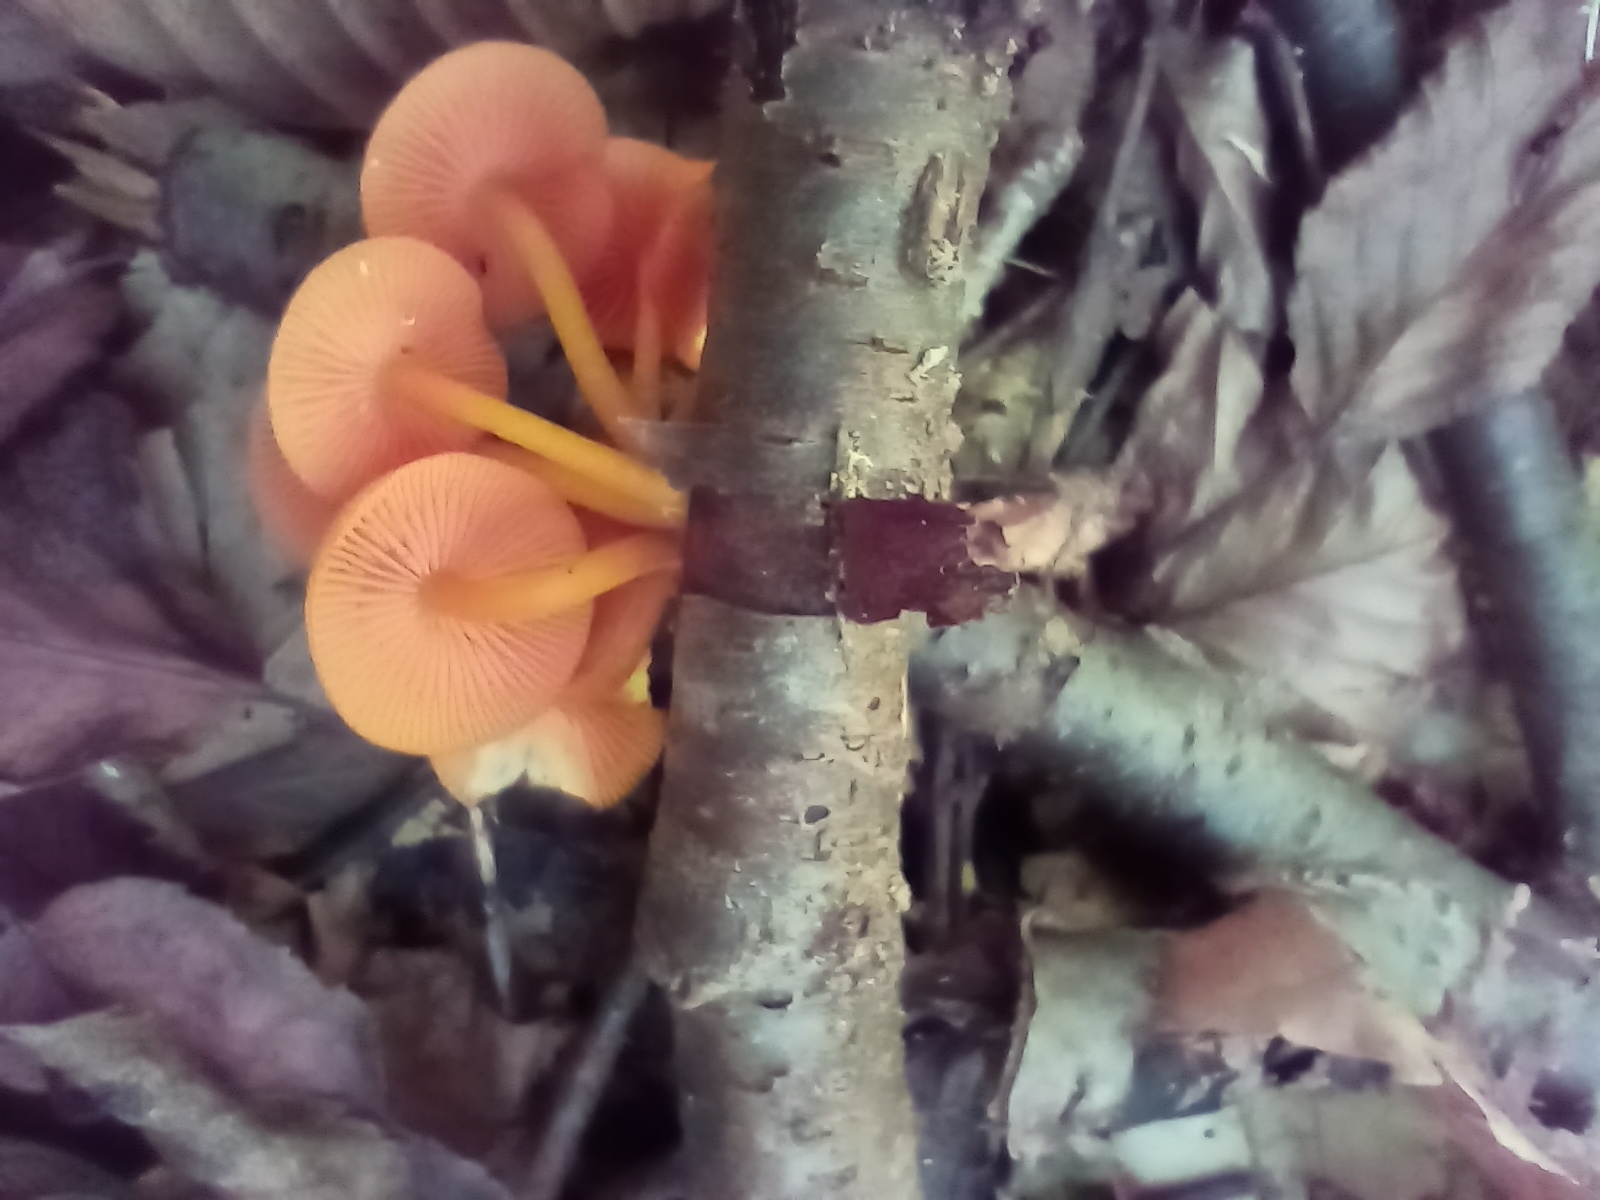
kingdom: Fungi
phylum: Basidiomycota
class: Agaricomycetes
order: Agaricales
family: Mycenaceae
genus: Mycena
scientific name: Mycena leaiana
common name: Orange mycena
